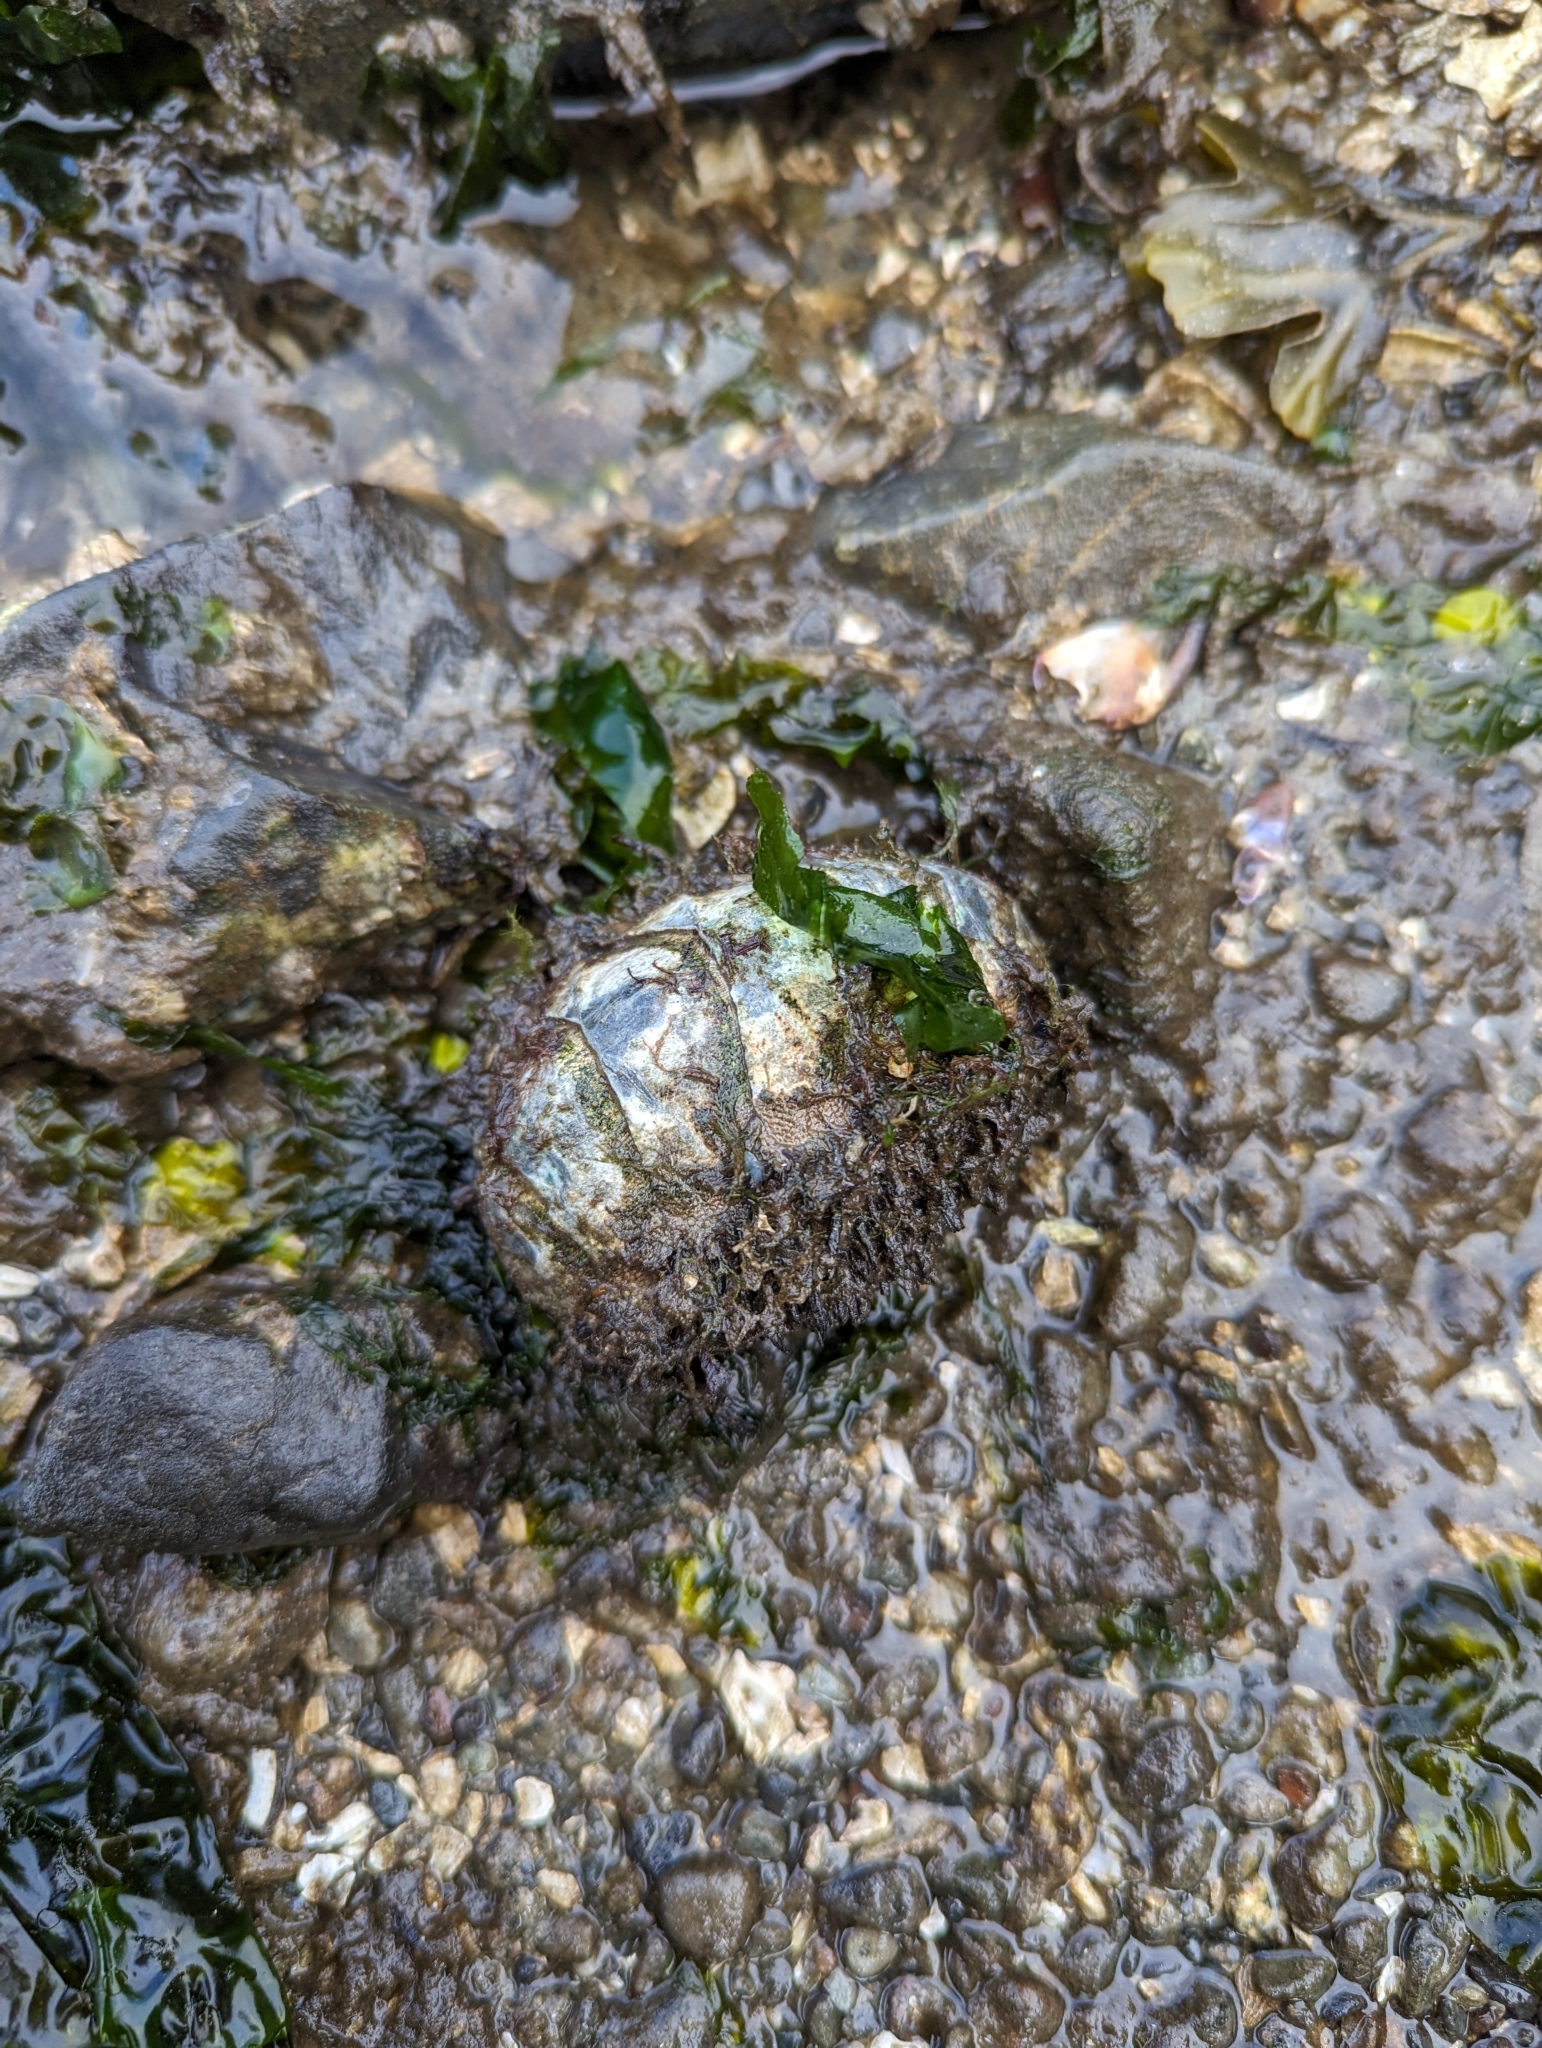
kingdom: Animalia
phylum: Mollusca
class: Polyplacophora
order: Chitonida
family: Mopaliidae
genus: Mopalia
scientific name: Mopalia muscosa
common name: Mossy chiton
